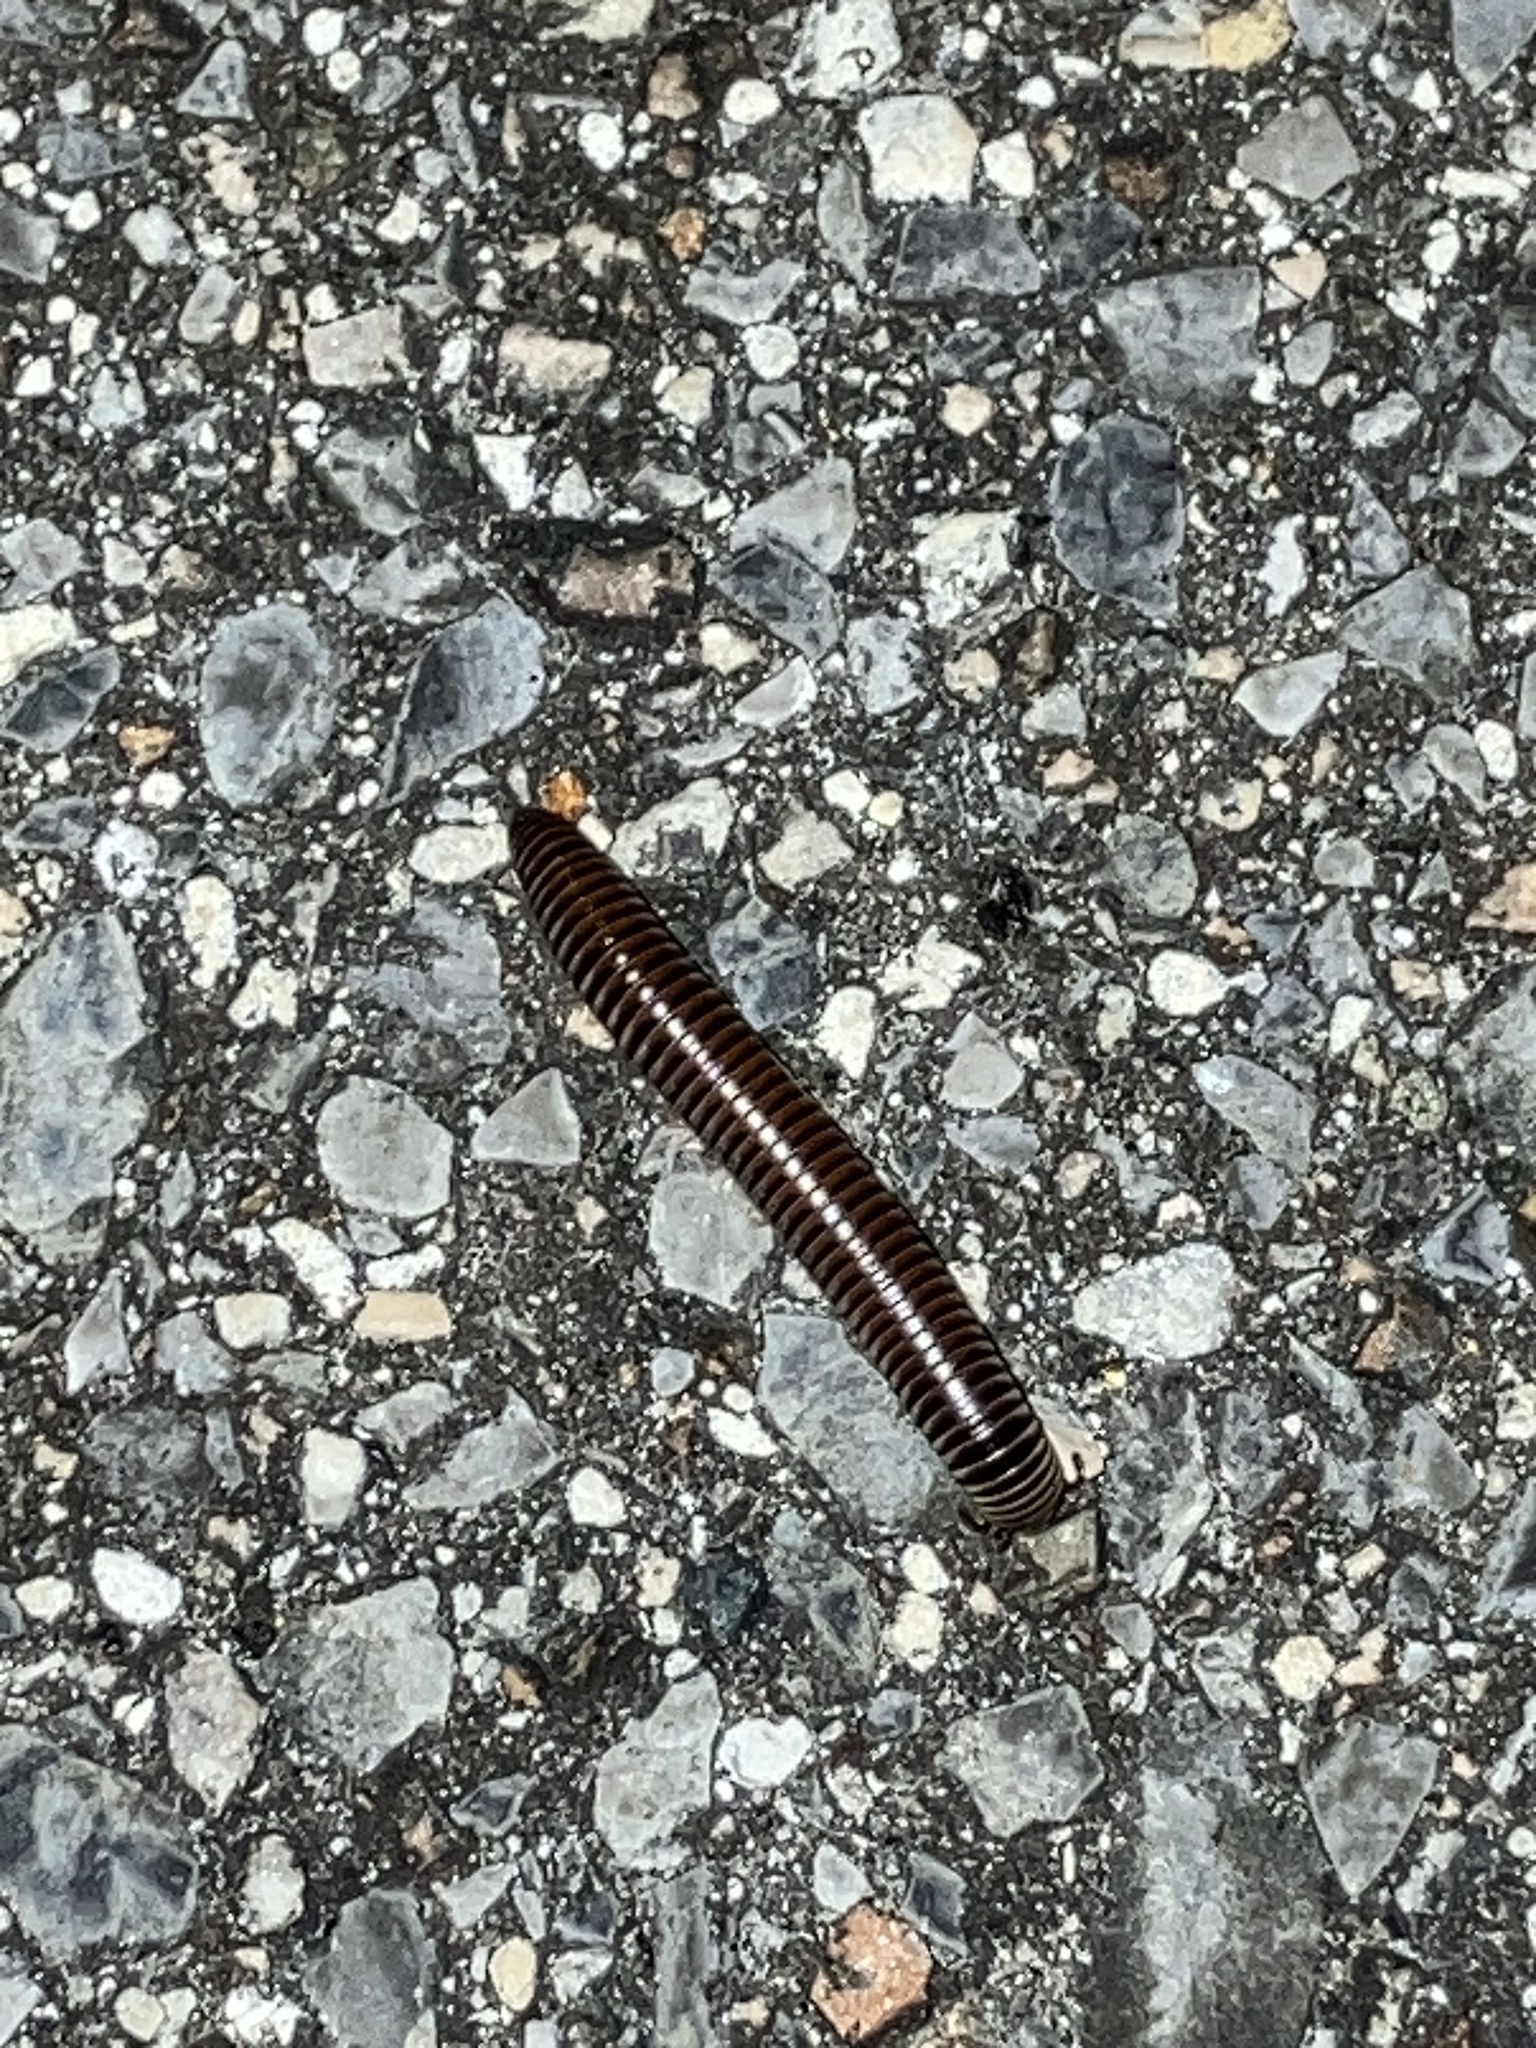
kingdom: Animalia
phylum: Arthropoda
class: Diplopoda
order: Spirobolida
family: Spirobolidae
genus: Chicobolus
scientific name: Chicobolus spinigerus
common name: Florida ivory millipede
